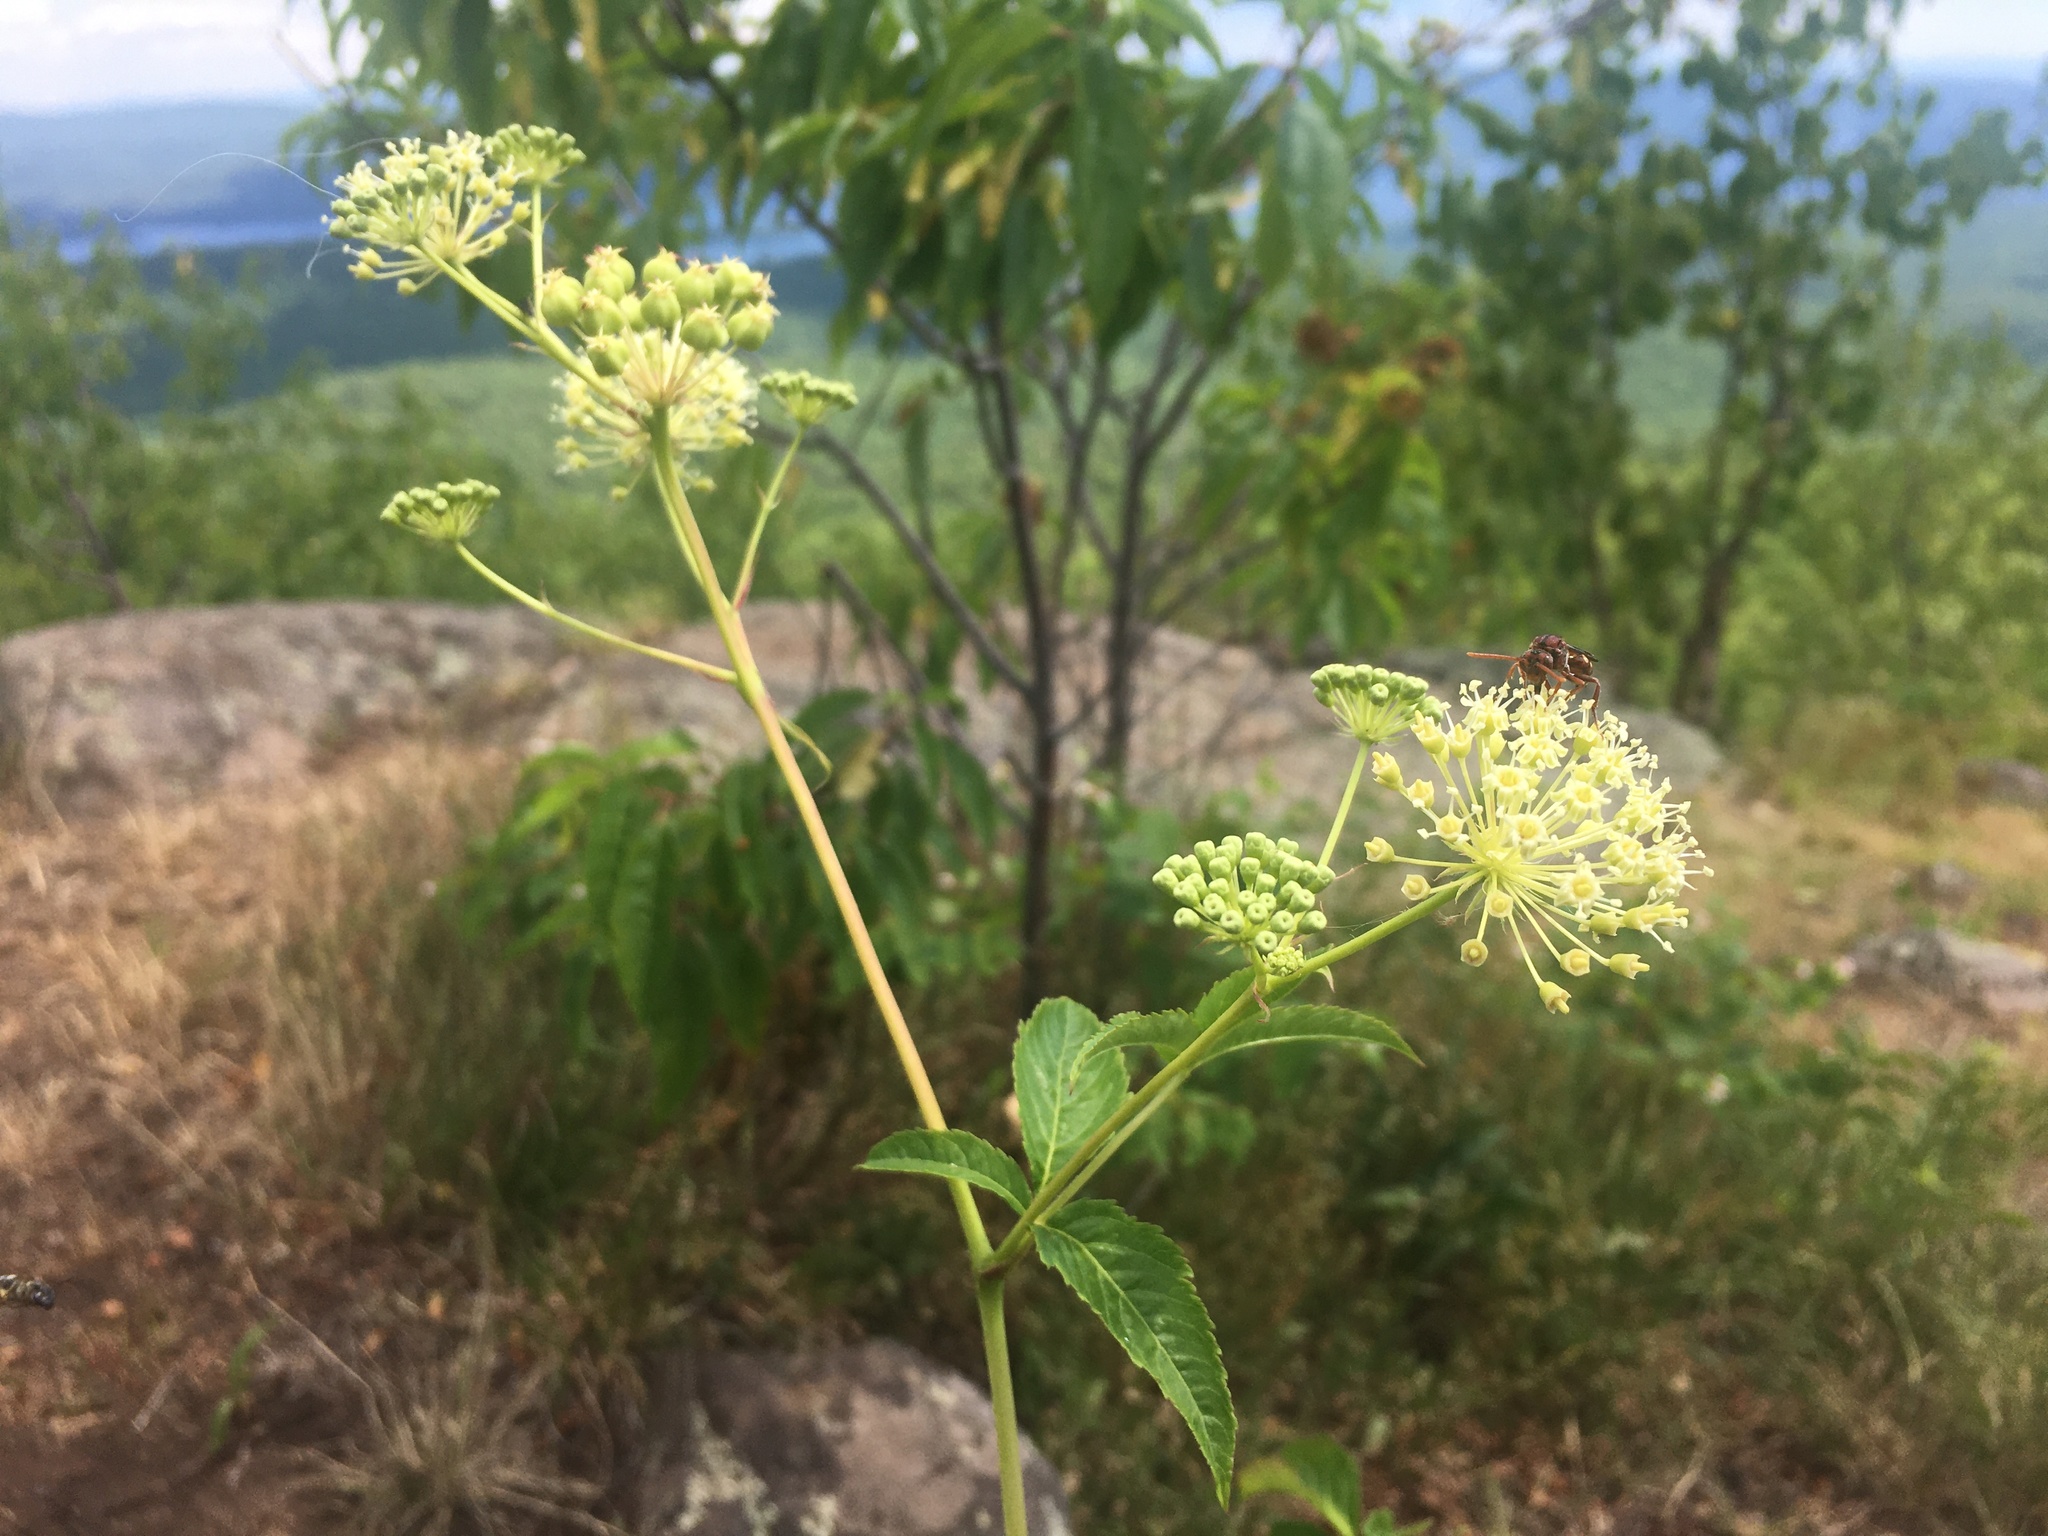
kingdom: Plantae
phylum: Tracheophyta
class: Magnoliopsida
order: Apiales
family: Araliaceae
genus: Aralia
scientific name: Aralia hispida
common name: Bristly sarsaparilla
